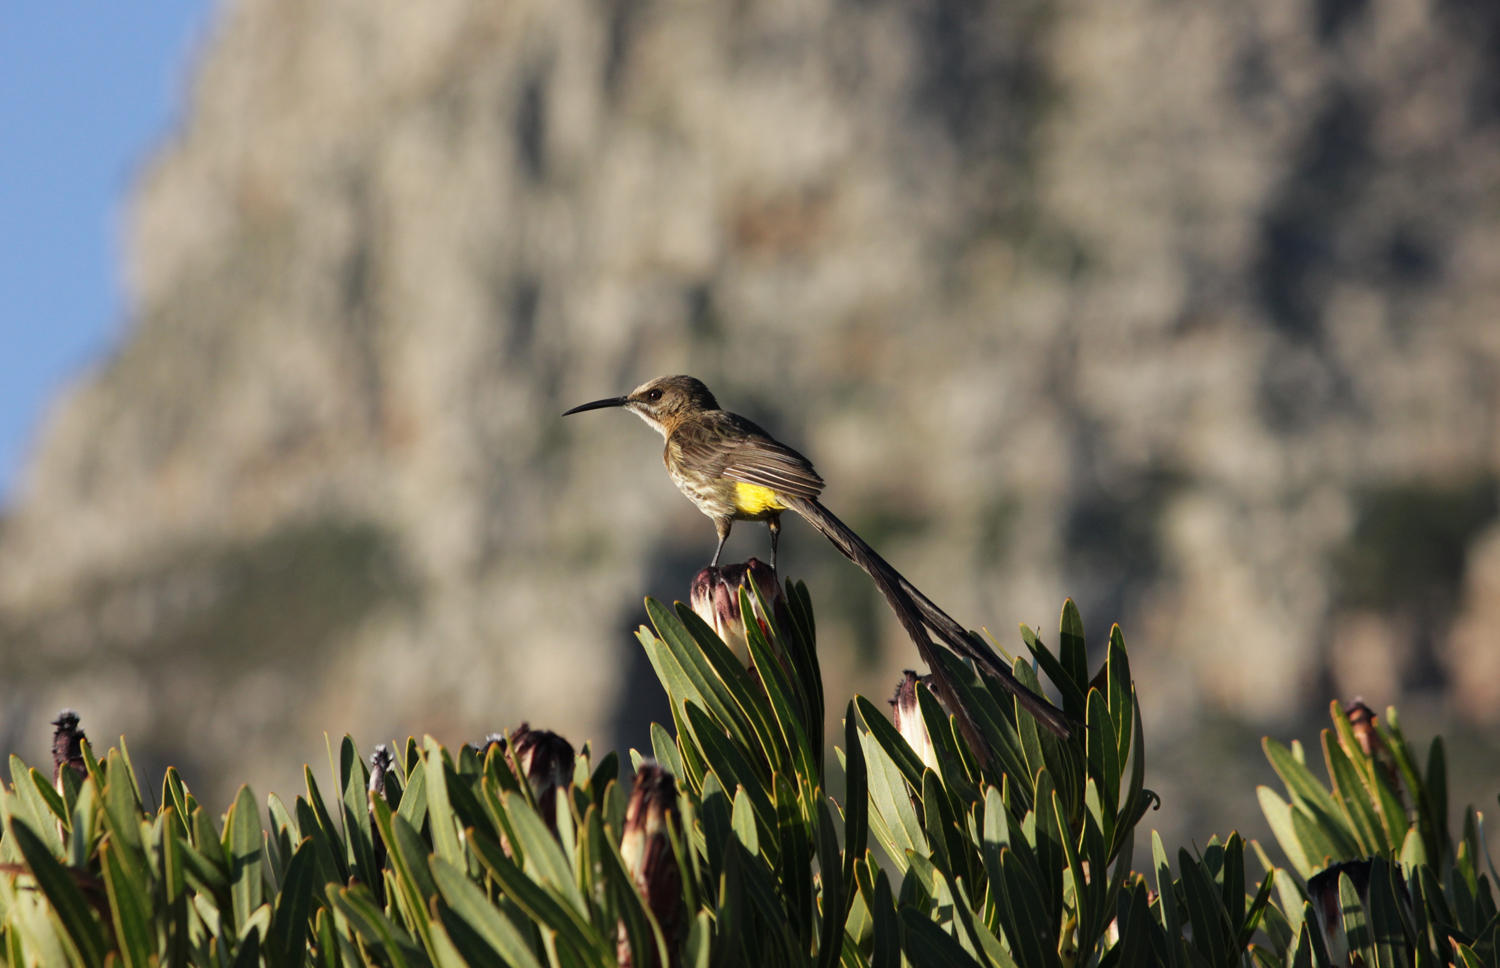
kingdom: Animalia
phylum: Chordata
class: Aves
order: Passeriformes
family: Promeropidae
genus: Promerops
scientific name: Promerops cafer
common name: Cape sugarbird
